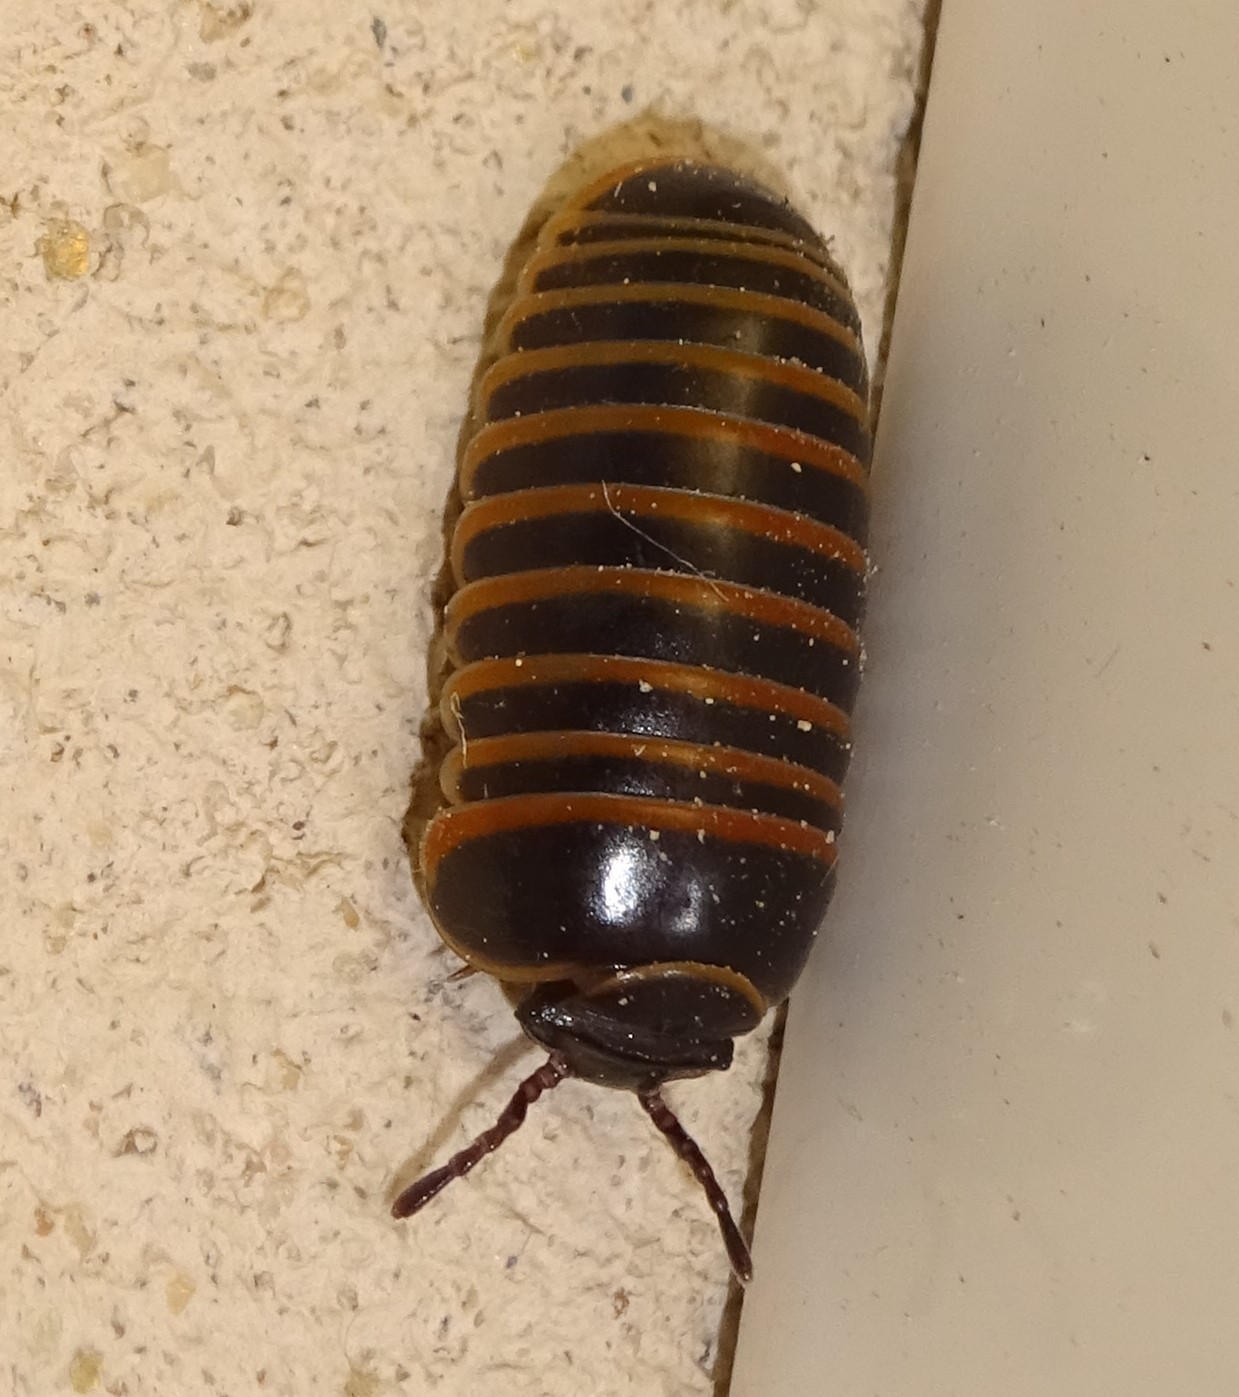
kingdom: Animalia
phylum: Arthropoda
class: Diplopoda
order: Glomerida
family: Glomeridae
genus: Glomeris
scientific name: Glomeris marginata
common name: Bordered pill millipede
